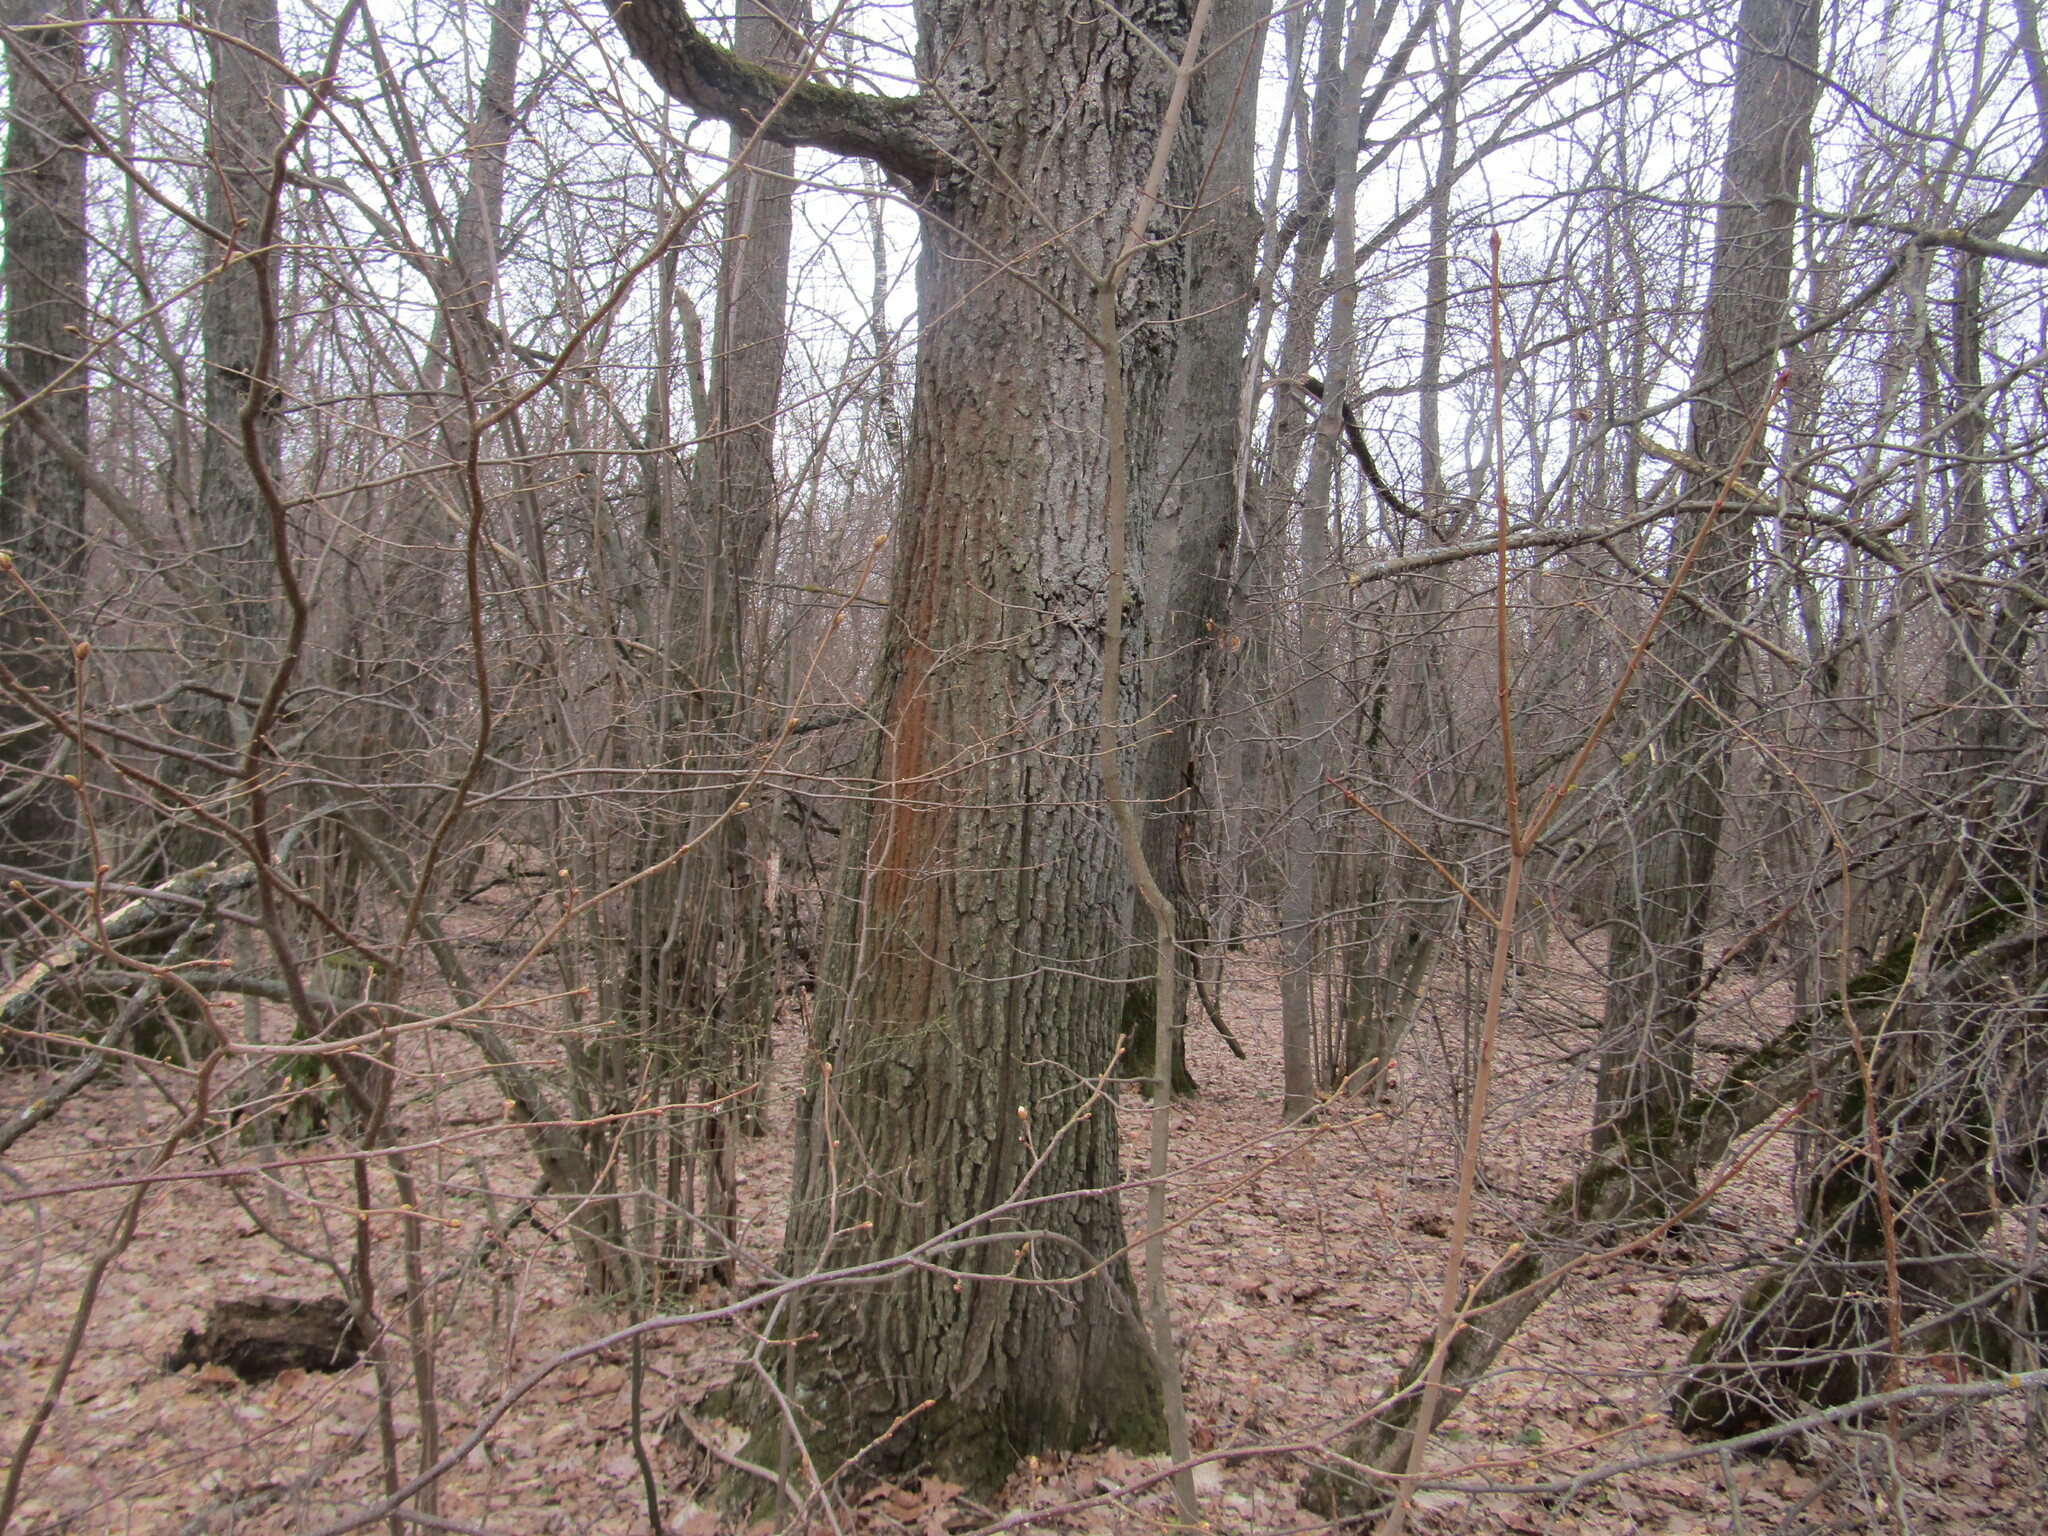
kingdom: Plantae
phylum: Tracheophyta
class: Magnoliopsida
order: Fagales
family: Fagaceae
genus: Quercus
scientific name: Quercus robur
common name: Pedunculate oak
